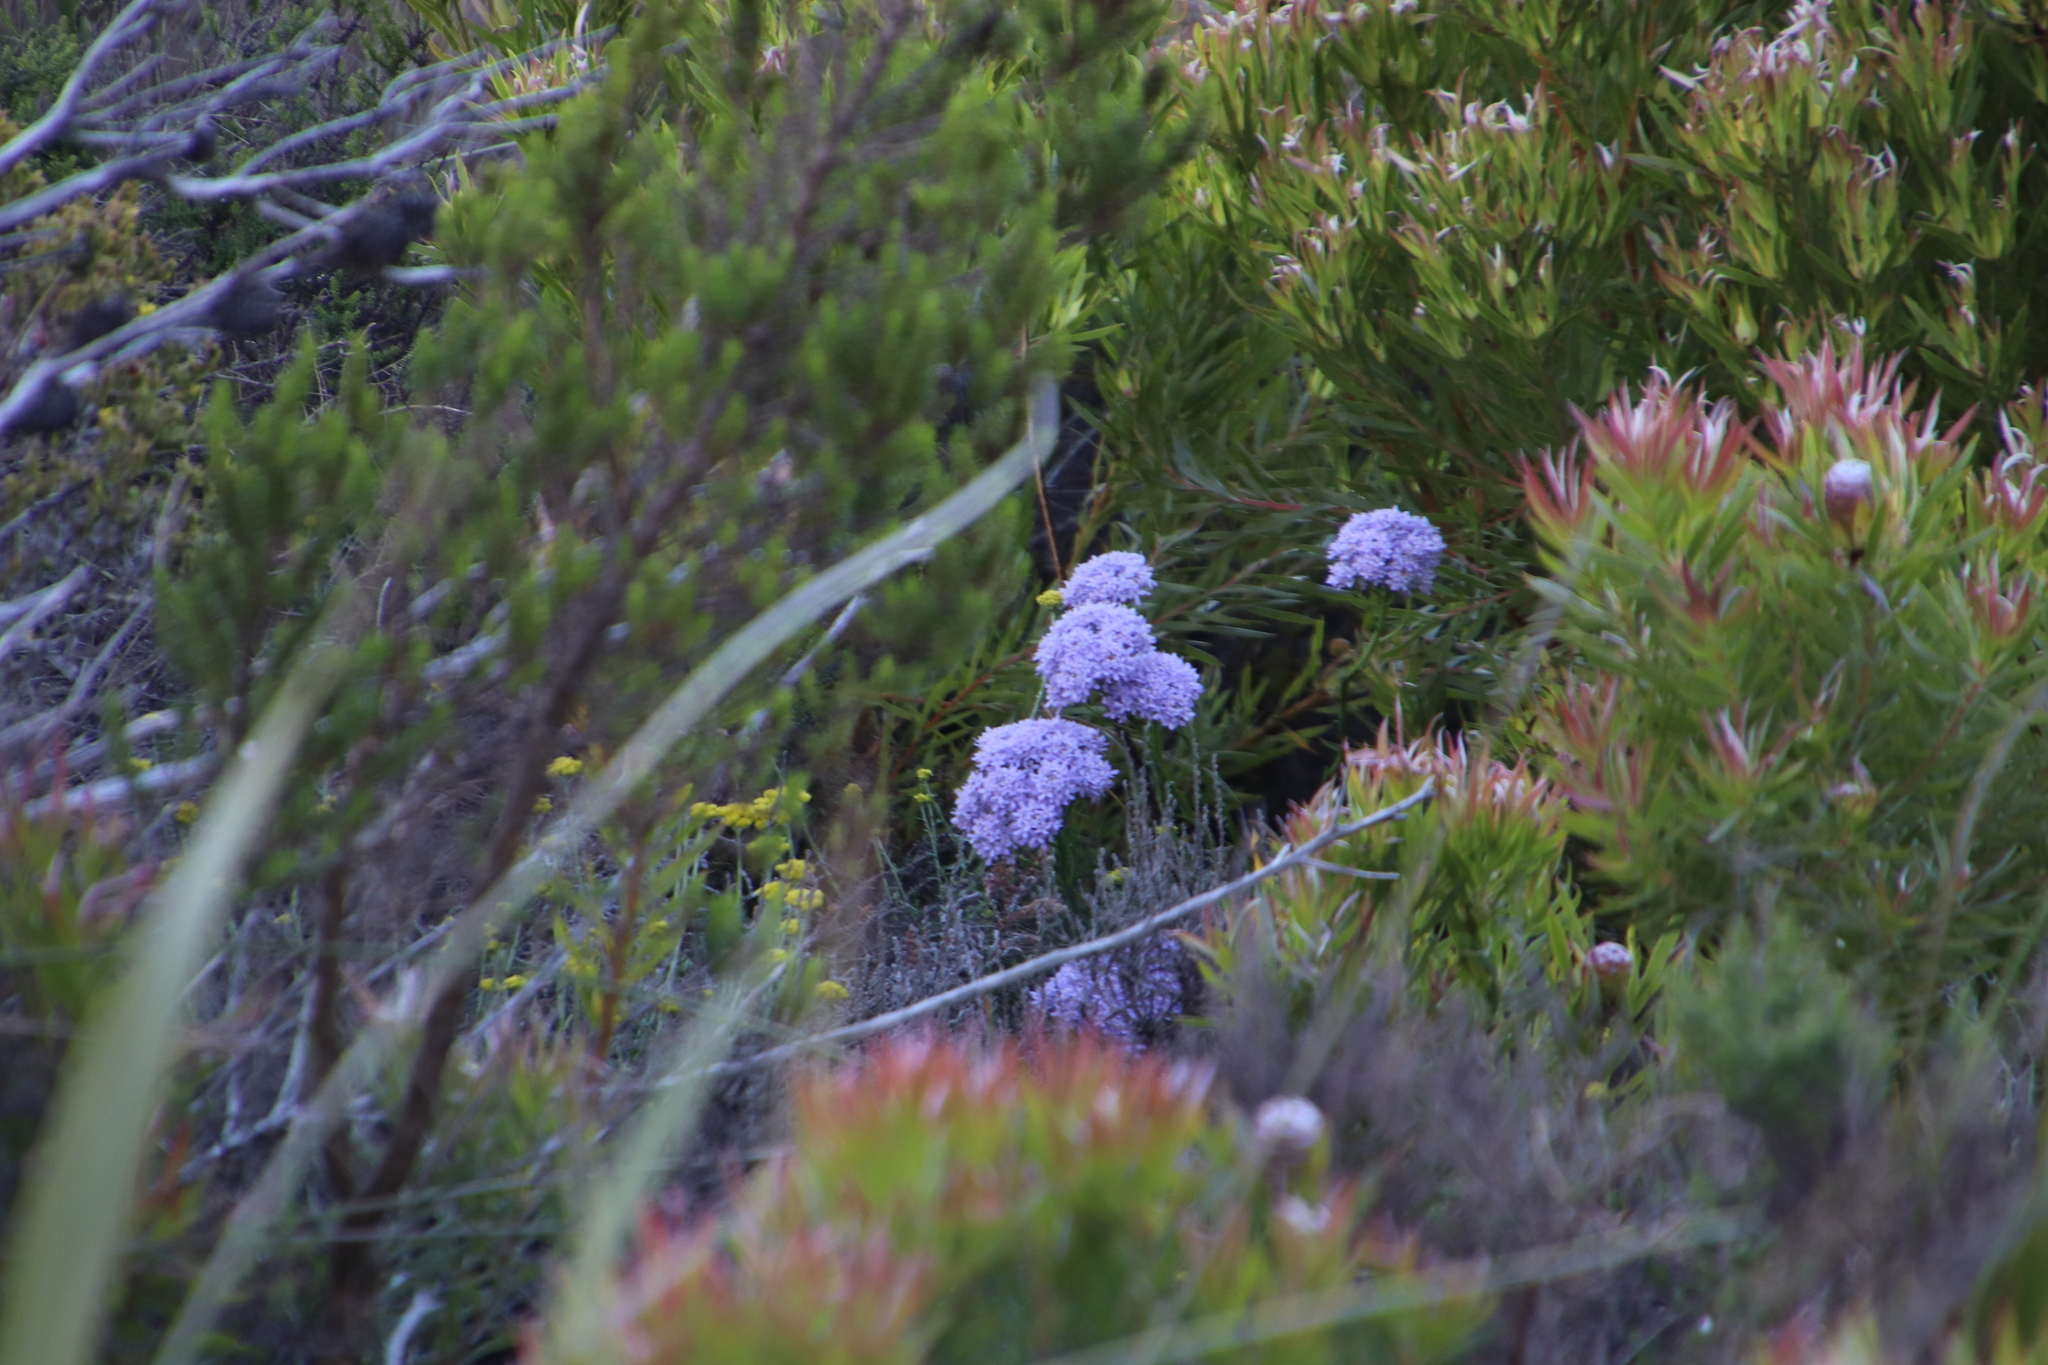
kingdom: Plantae
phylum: Tracheophyta
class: Magnoliopsida
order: Lamiales
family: Scrophulariaceae
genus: Pseudoselago
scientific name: Pseudoselago spuria
